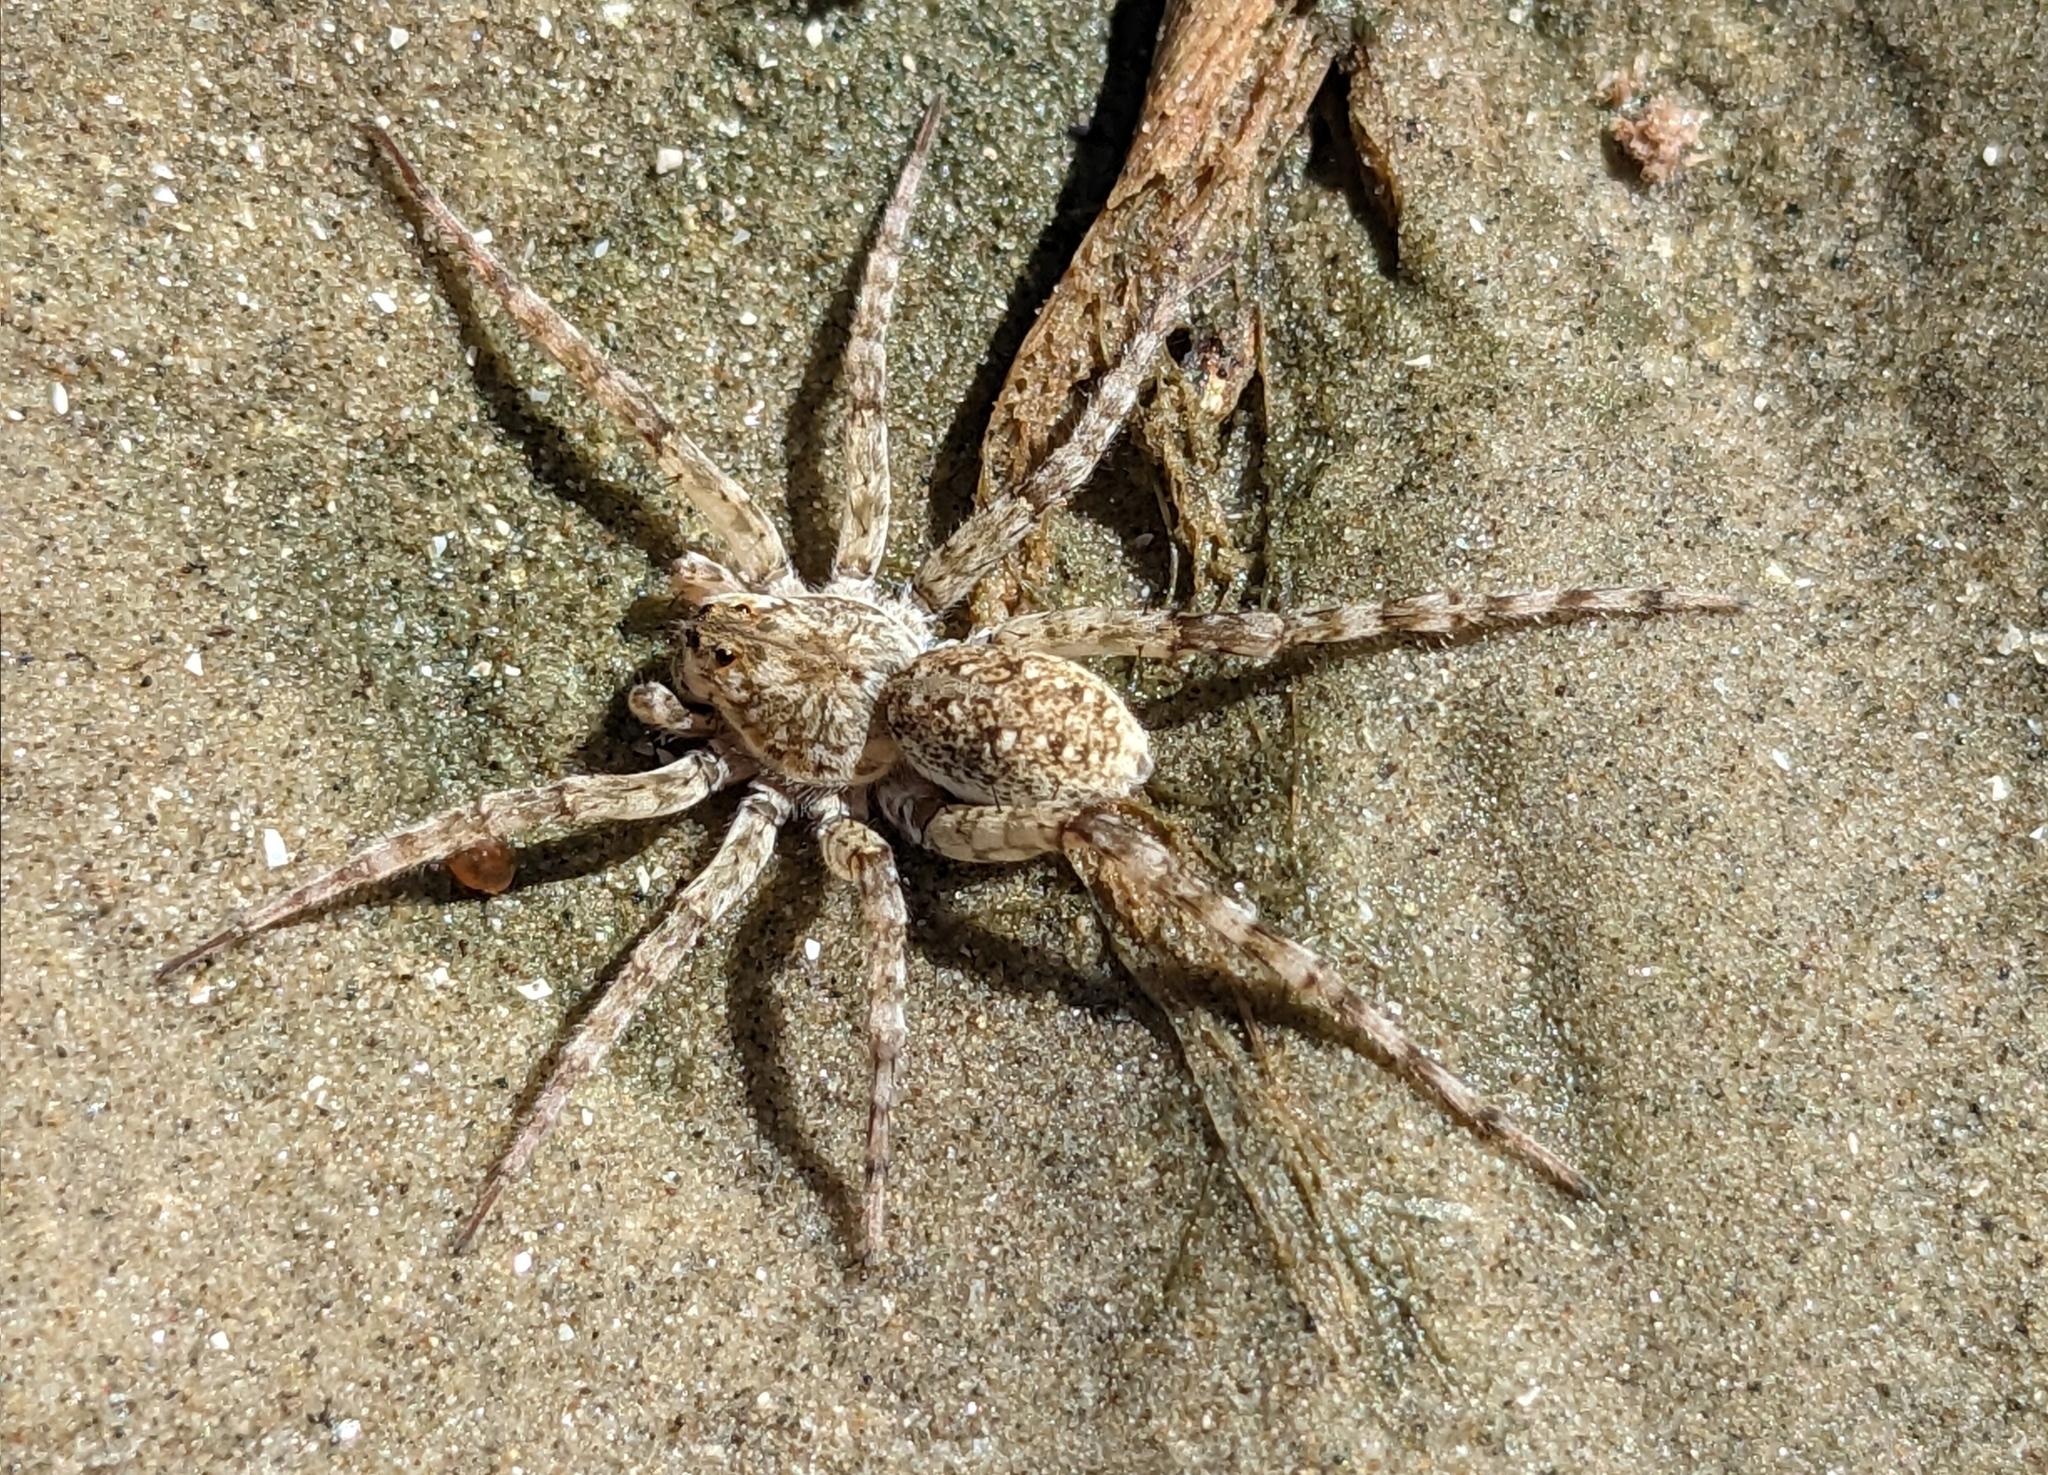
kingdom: Animalia
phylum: Arthropoda
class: Arachnida
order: Araneae
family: Lycosidae
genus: Arctosa
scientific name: Arctosa littoralis
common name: Wolf spiders
